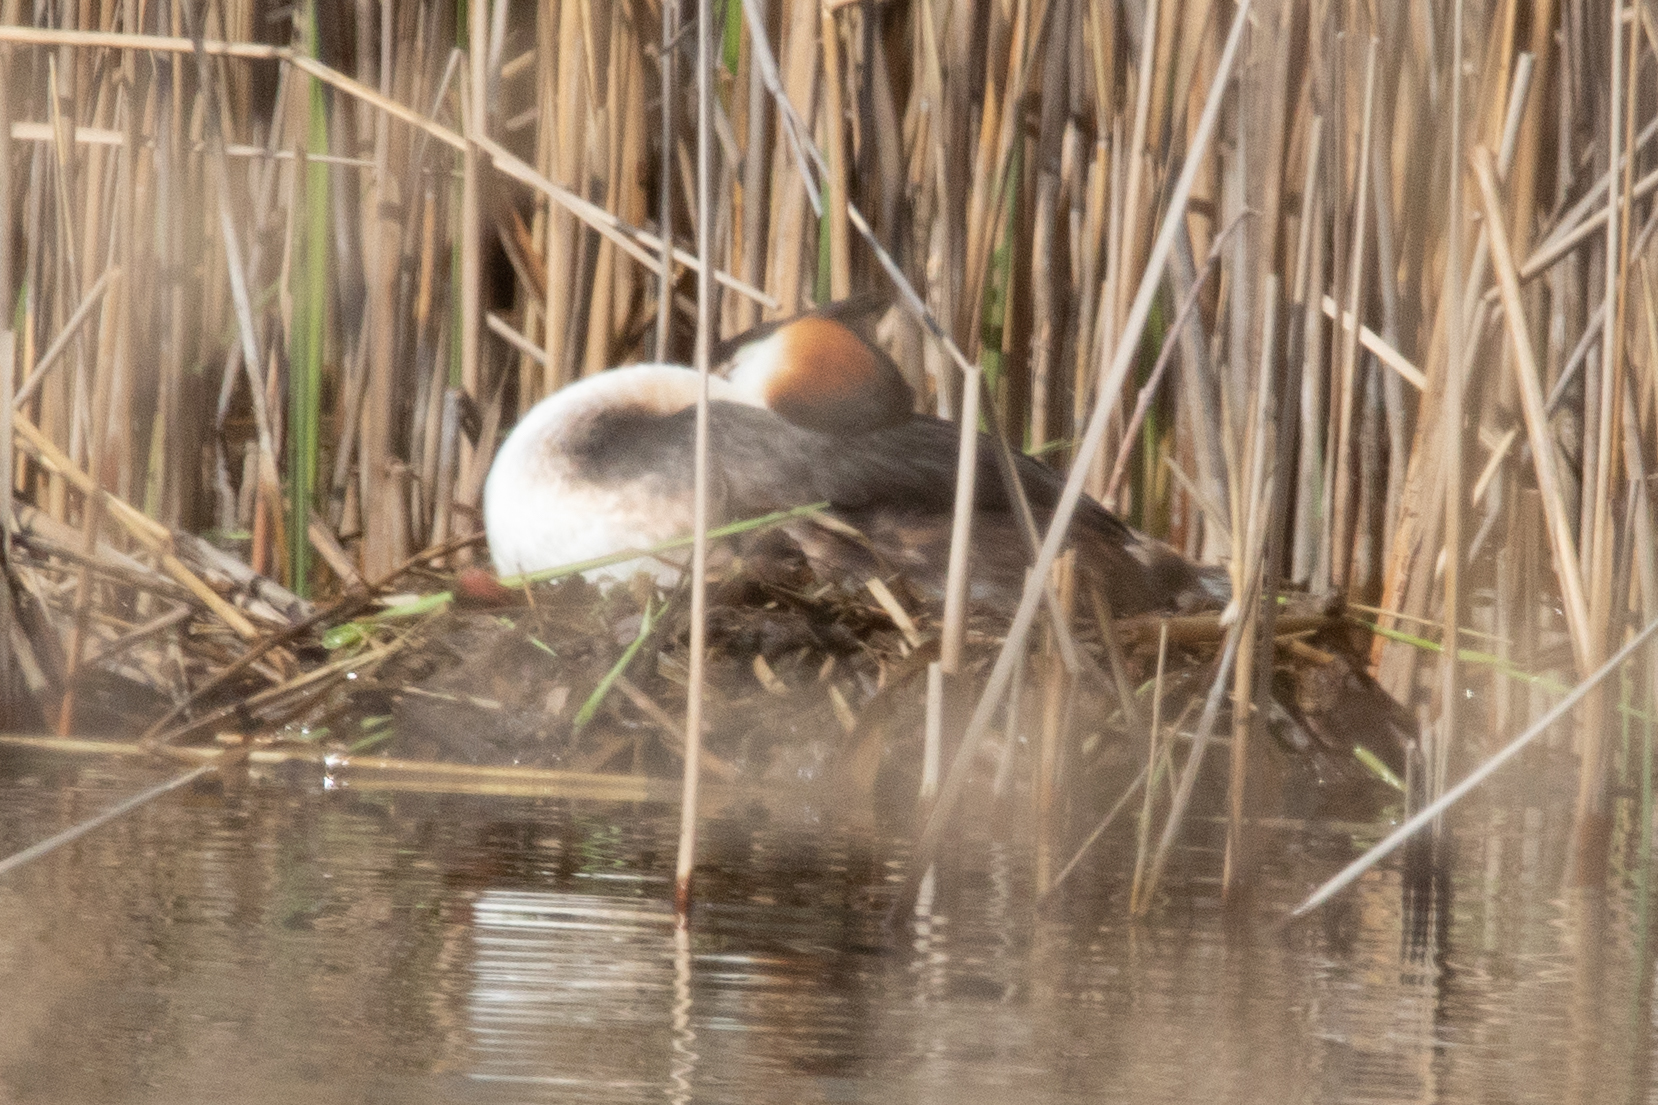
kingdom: Animalia
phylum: Chordata
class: Aves
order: Podicipediformes
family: Podicipedidae
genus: Podiceps
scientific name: Podiceps cristatus
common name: Great crested grebe
